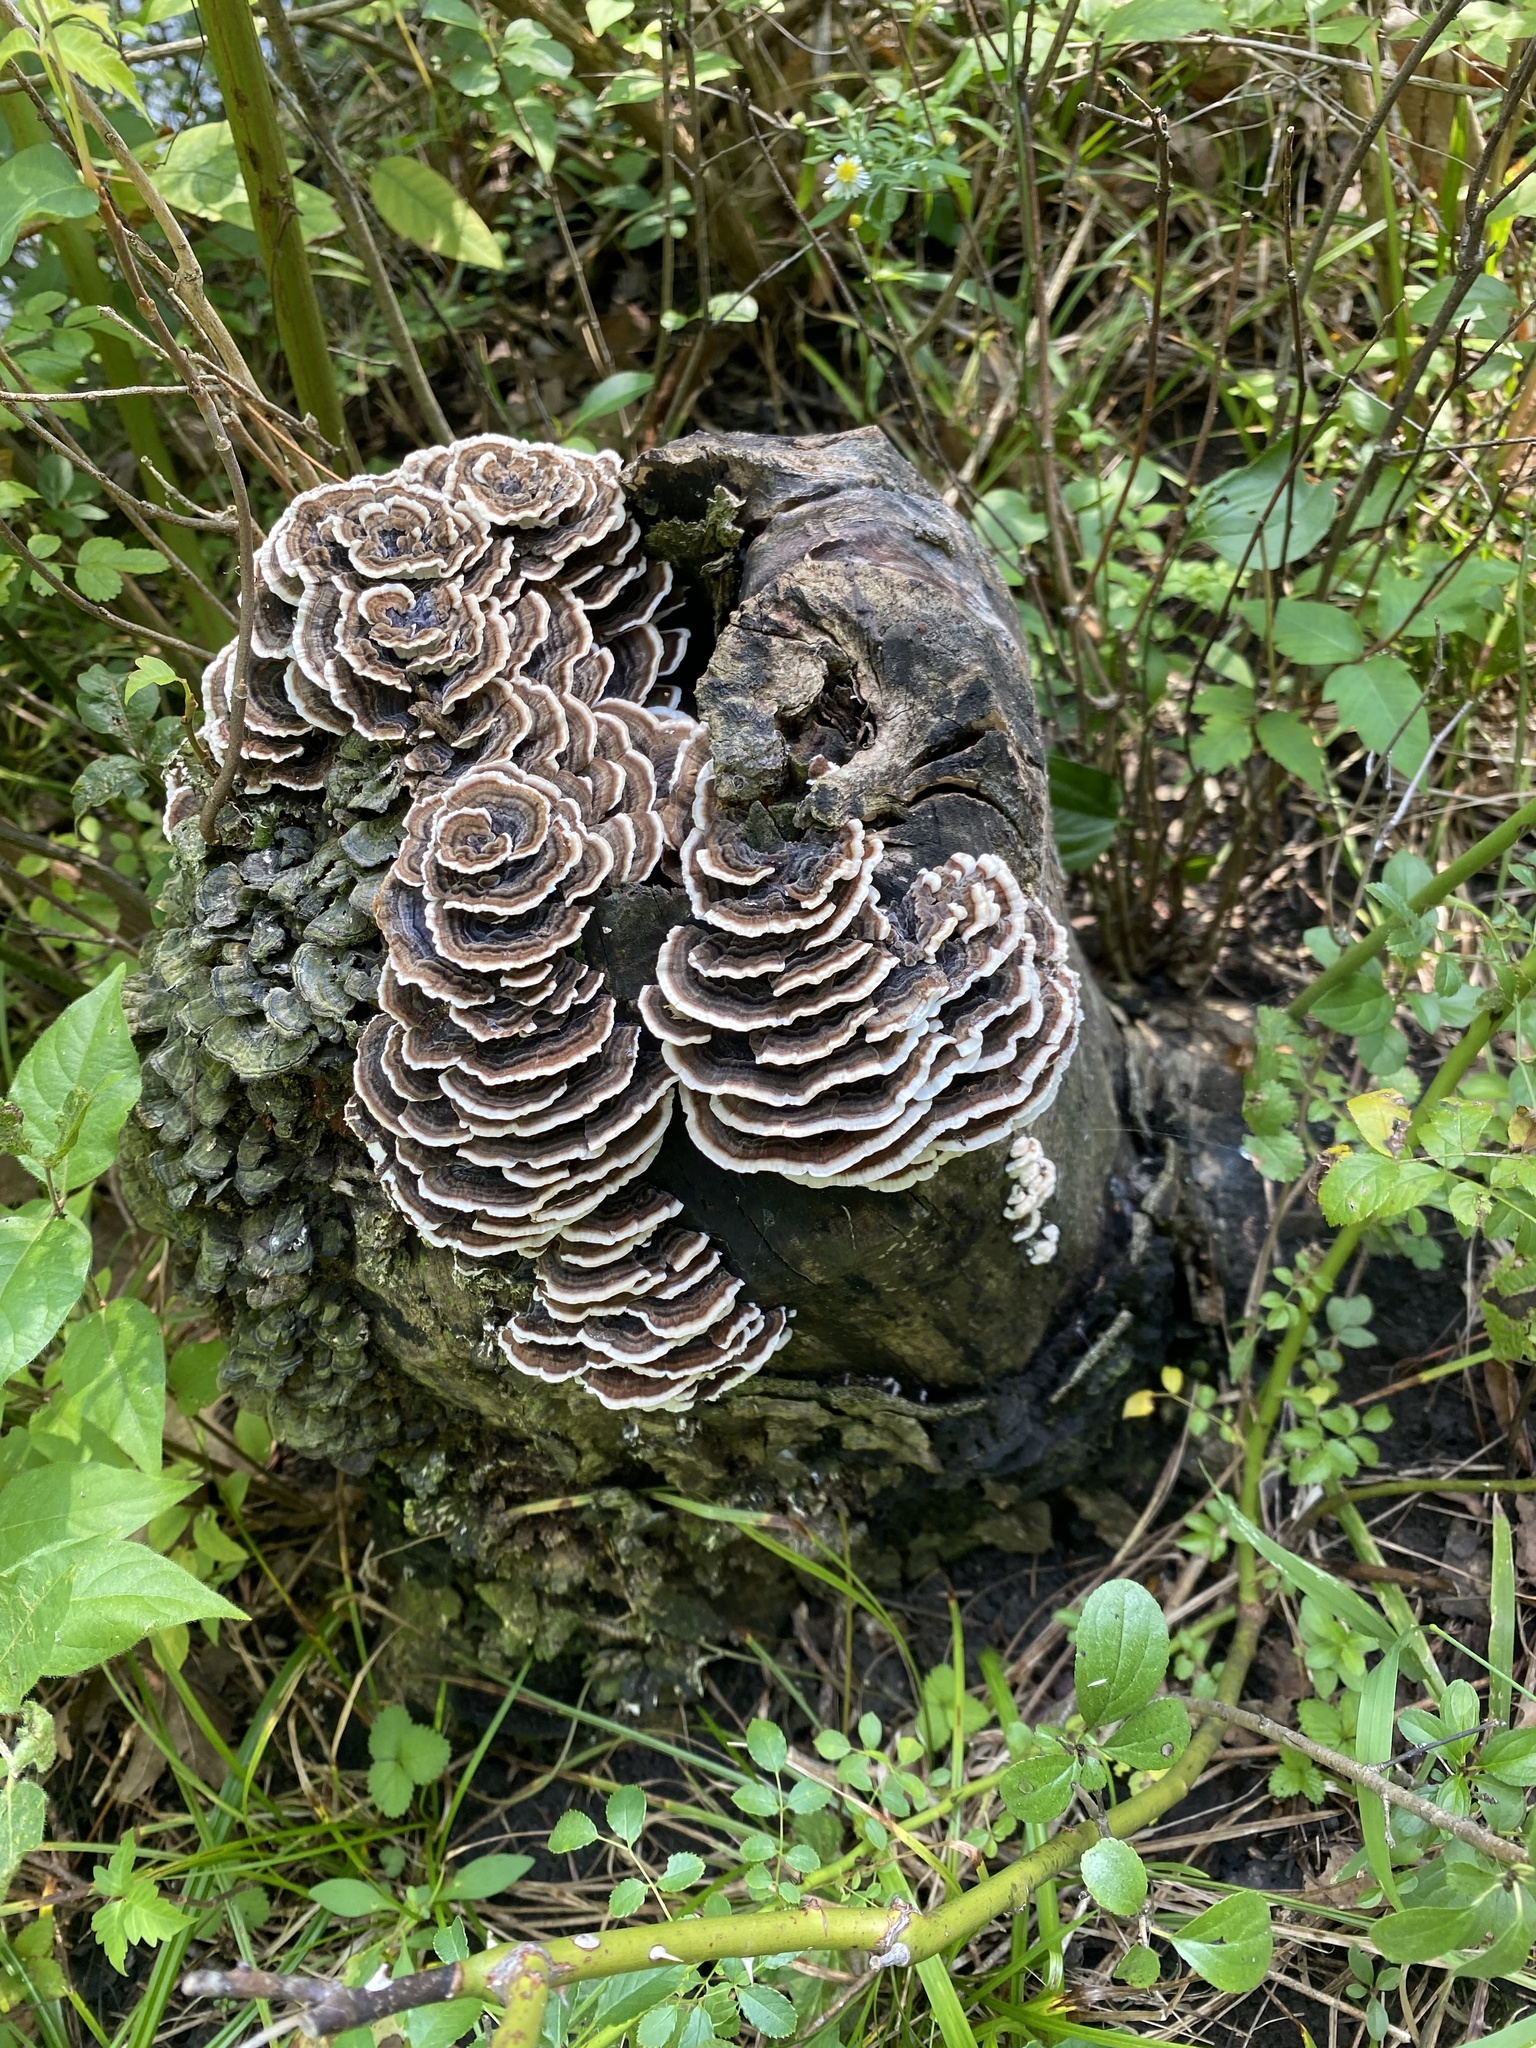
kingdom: Fungi
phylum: Basidiomycota
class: Agaricomycetes
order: Polyporales
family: Polyporaceae
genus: Trametes
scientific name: Trametes versicolor
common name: Turkeytail
